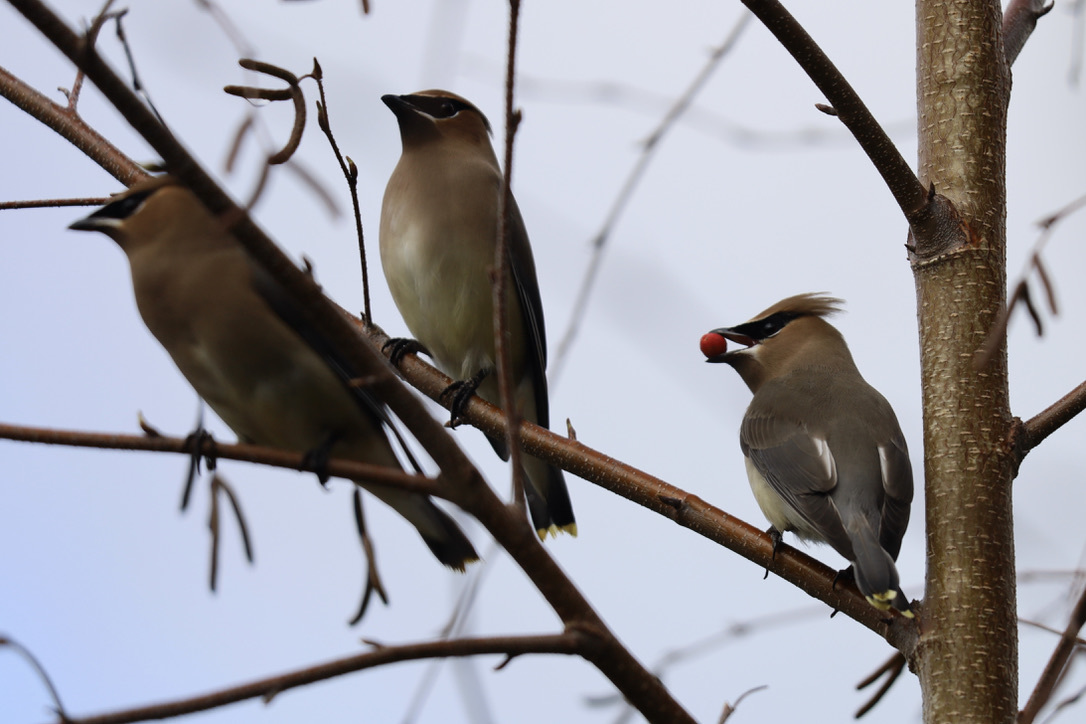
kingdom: Animalia
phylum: Chordata
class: Aves
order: Passeriformes
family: Bombycillidae
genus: Bombycilla
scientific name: Bombycilla cedrorum
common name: Cedar waxwing
